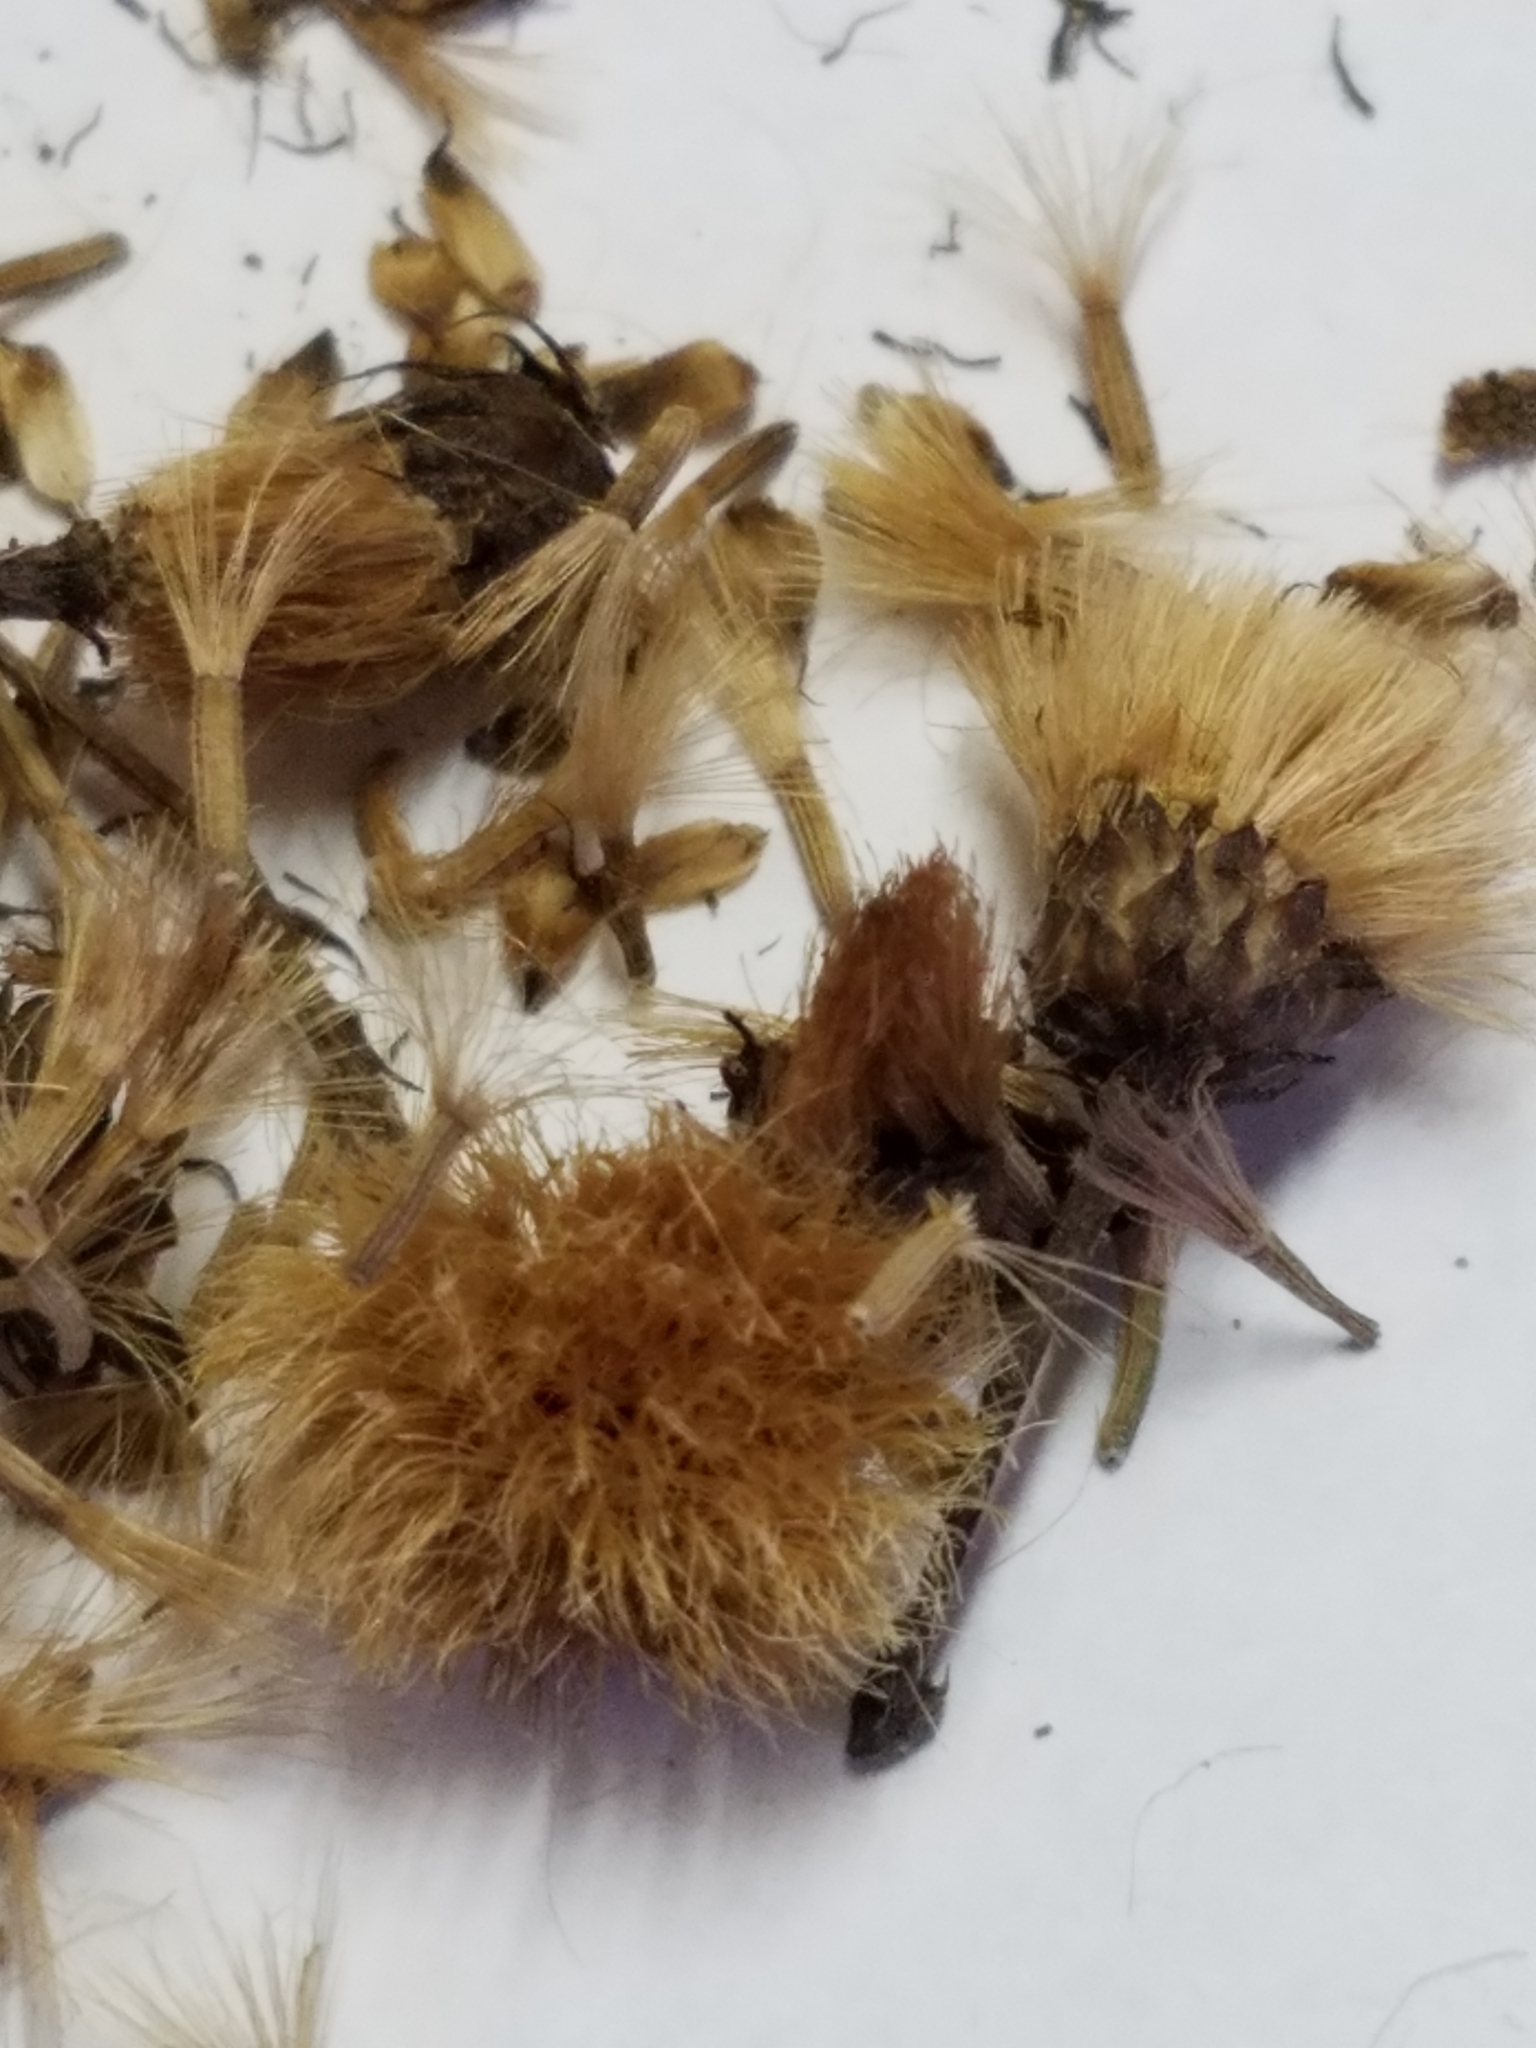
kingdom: Plantae
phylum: Tracheophyta
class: Magnoliopsida
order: Asterales
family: Asteraceae
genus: Vernonia
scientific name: Vernonia noveboracensis
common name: New york ironweed
